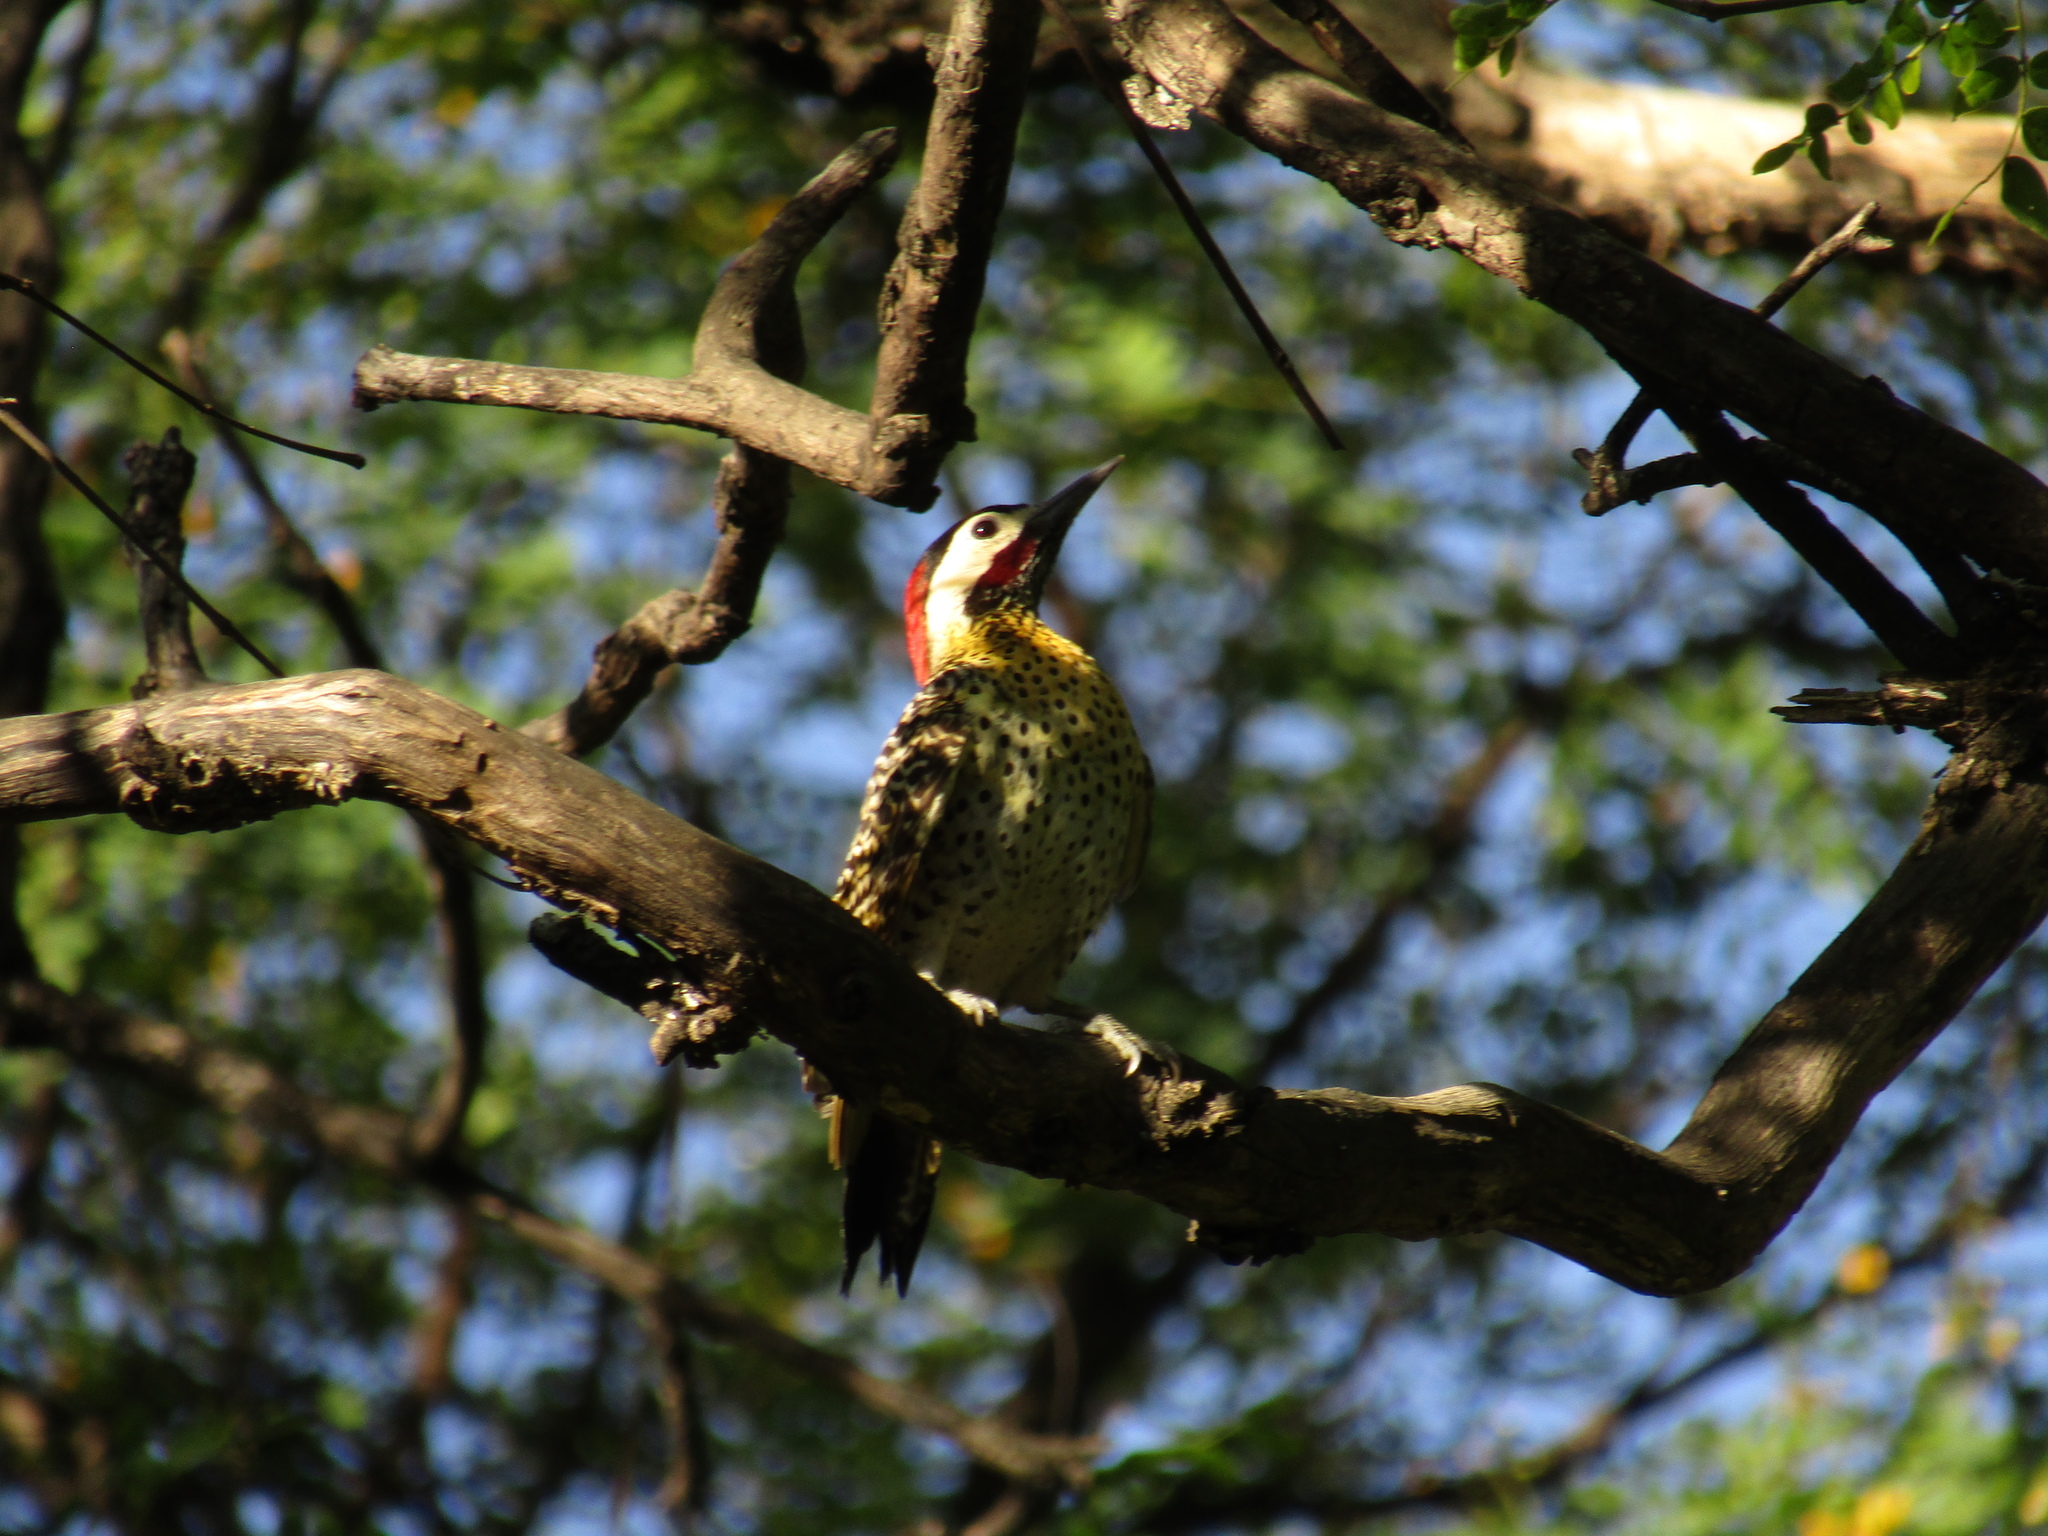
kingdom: Animalia
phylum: Chordata
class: Aves
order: Piciformes
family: Picidae
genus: Colaptes
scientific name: Colaptes melanochloros
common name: Green-barred woodpecker
